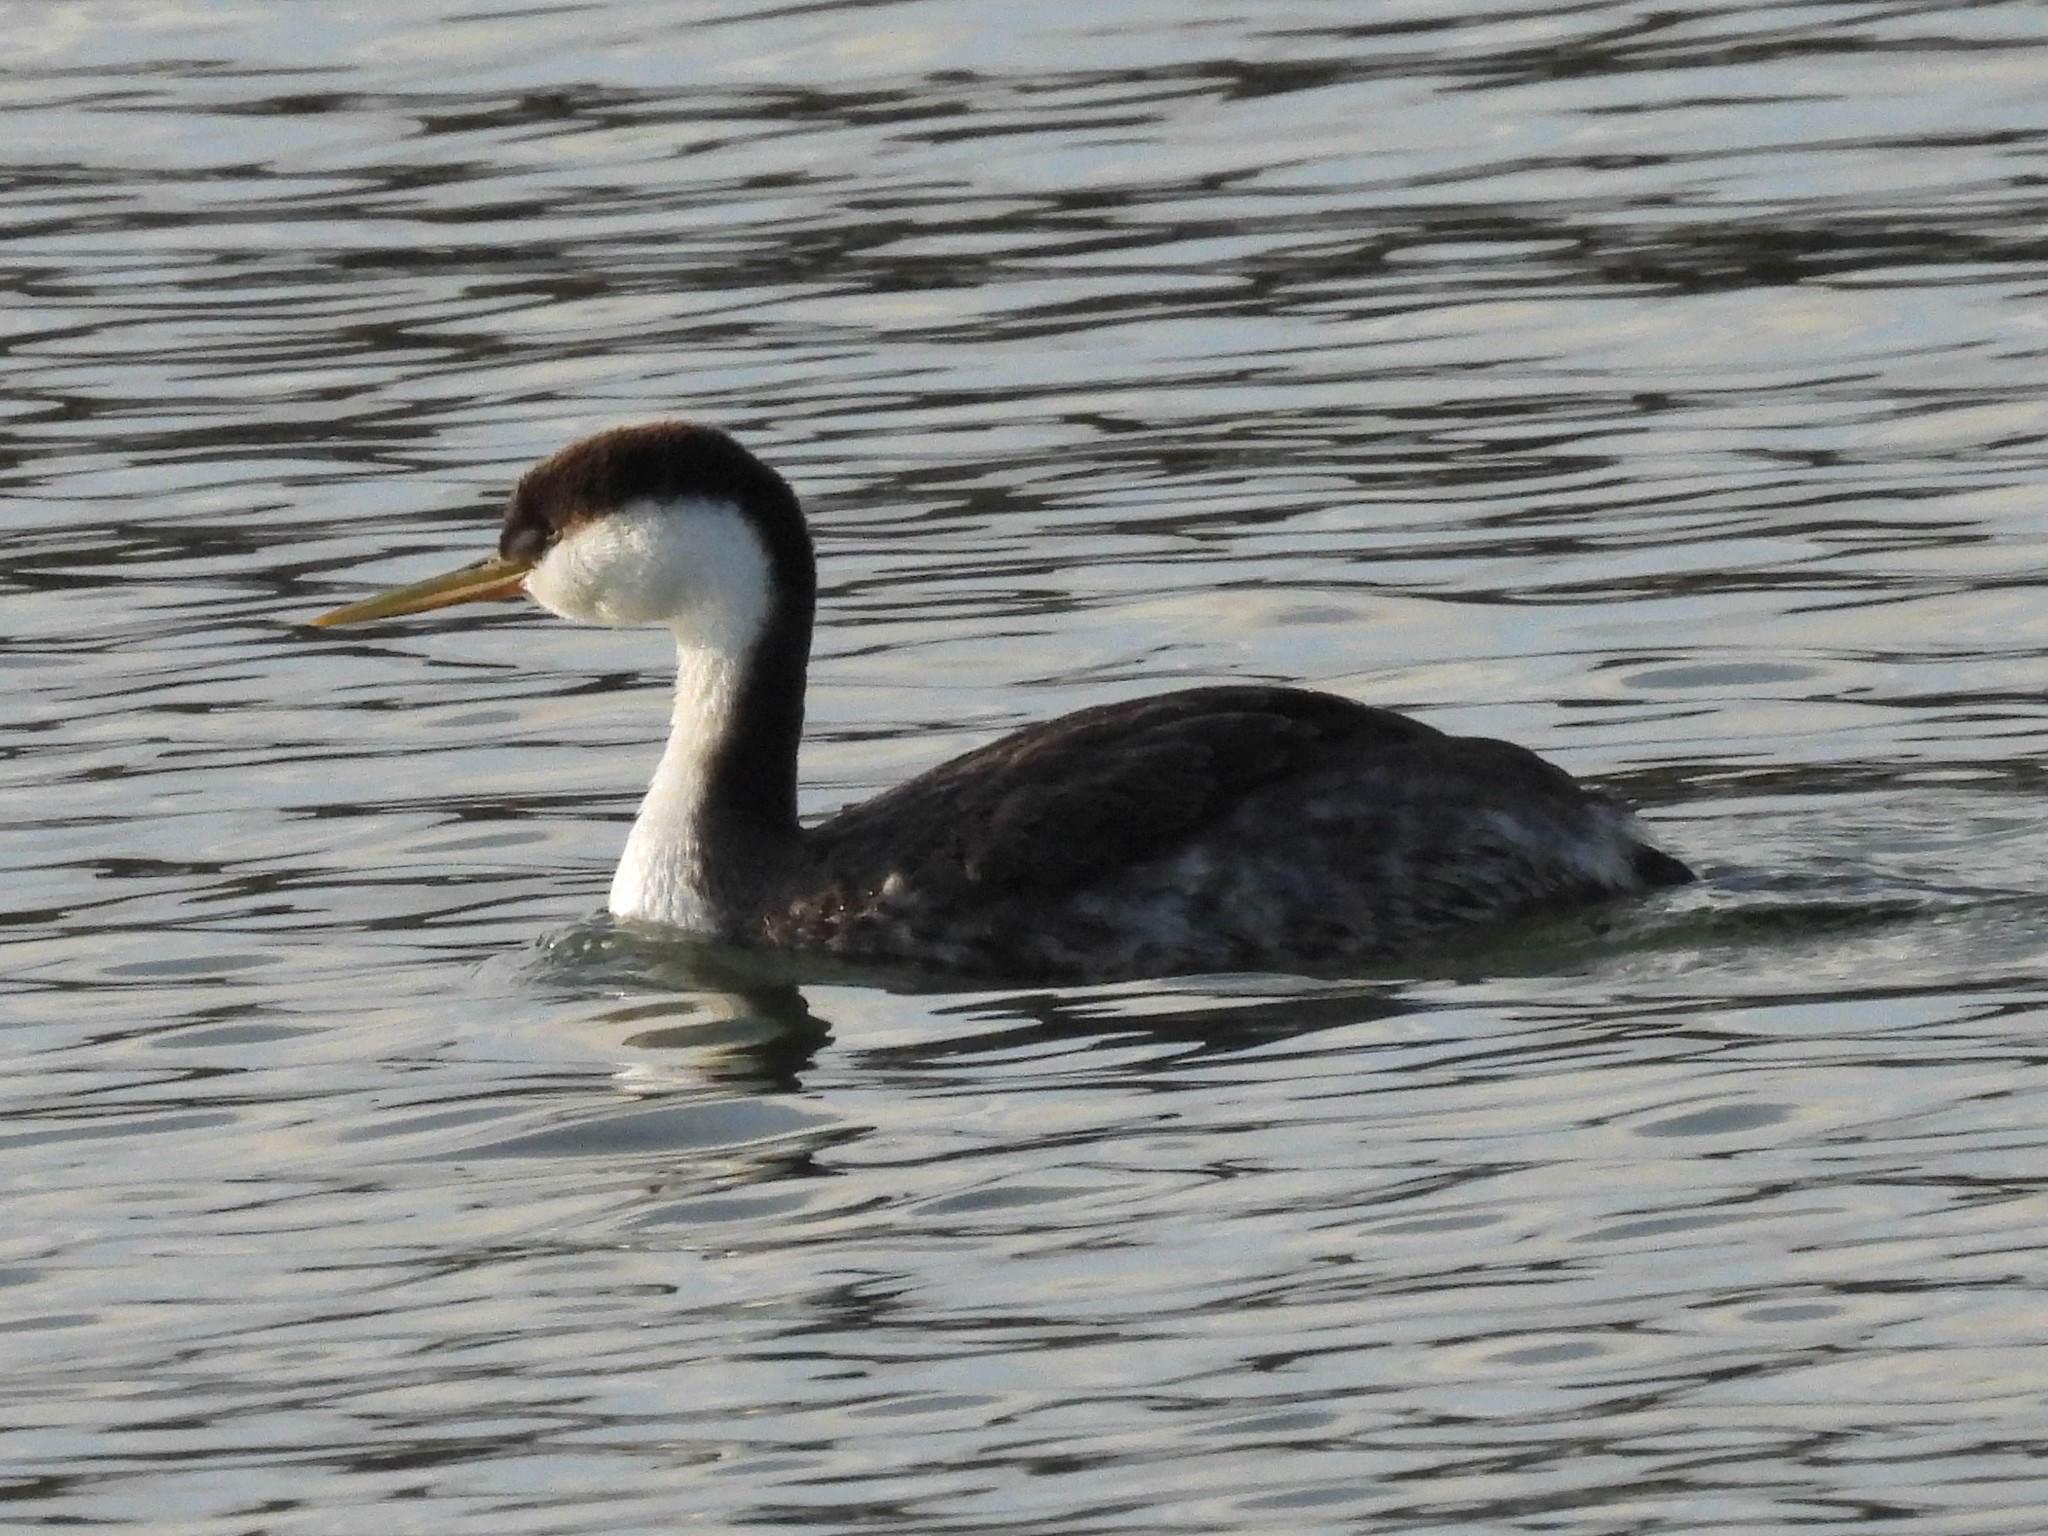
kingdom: Animalia
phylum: Chordata
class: Aves
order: Podicipediformes
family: Podicipedidae
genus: Aechmophorus
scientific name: Aechmophorus occidentalis
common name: Western grebe
